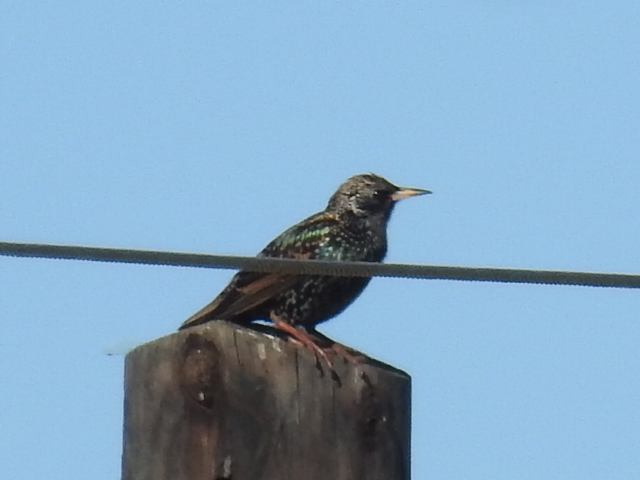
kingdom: Animalia
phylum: Chordata
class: Aves
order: Passeriformes
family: Sturnidae
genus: Sturnus
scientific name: Sturnus vulgaris
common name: Common starling
